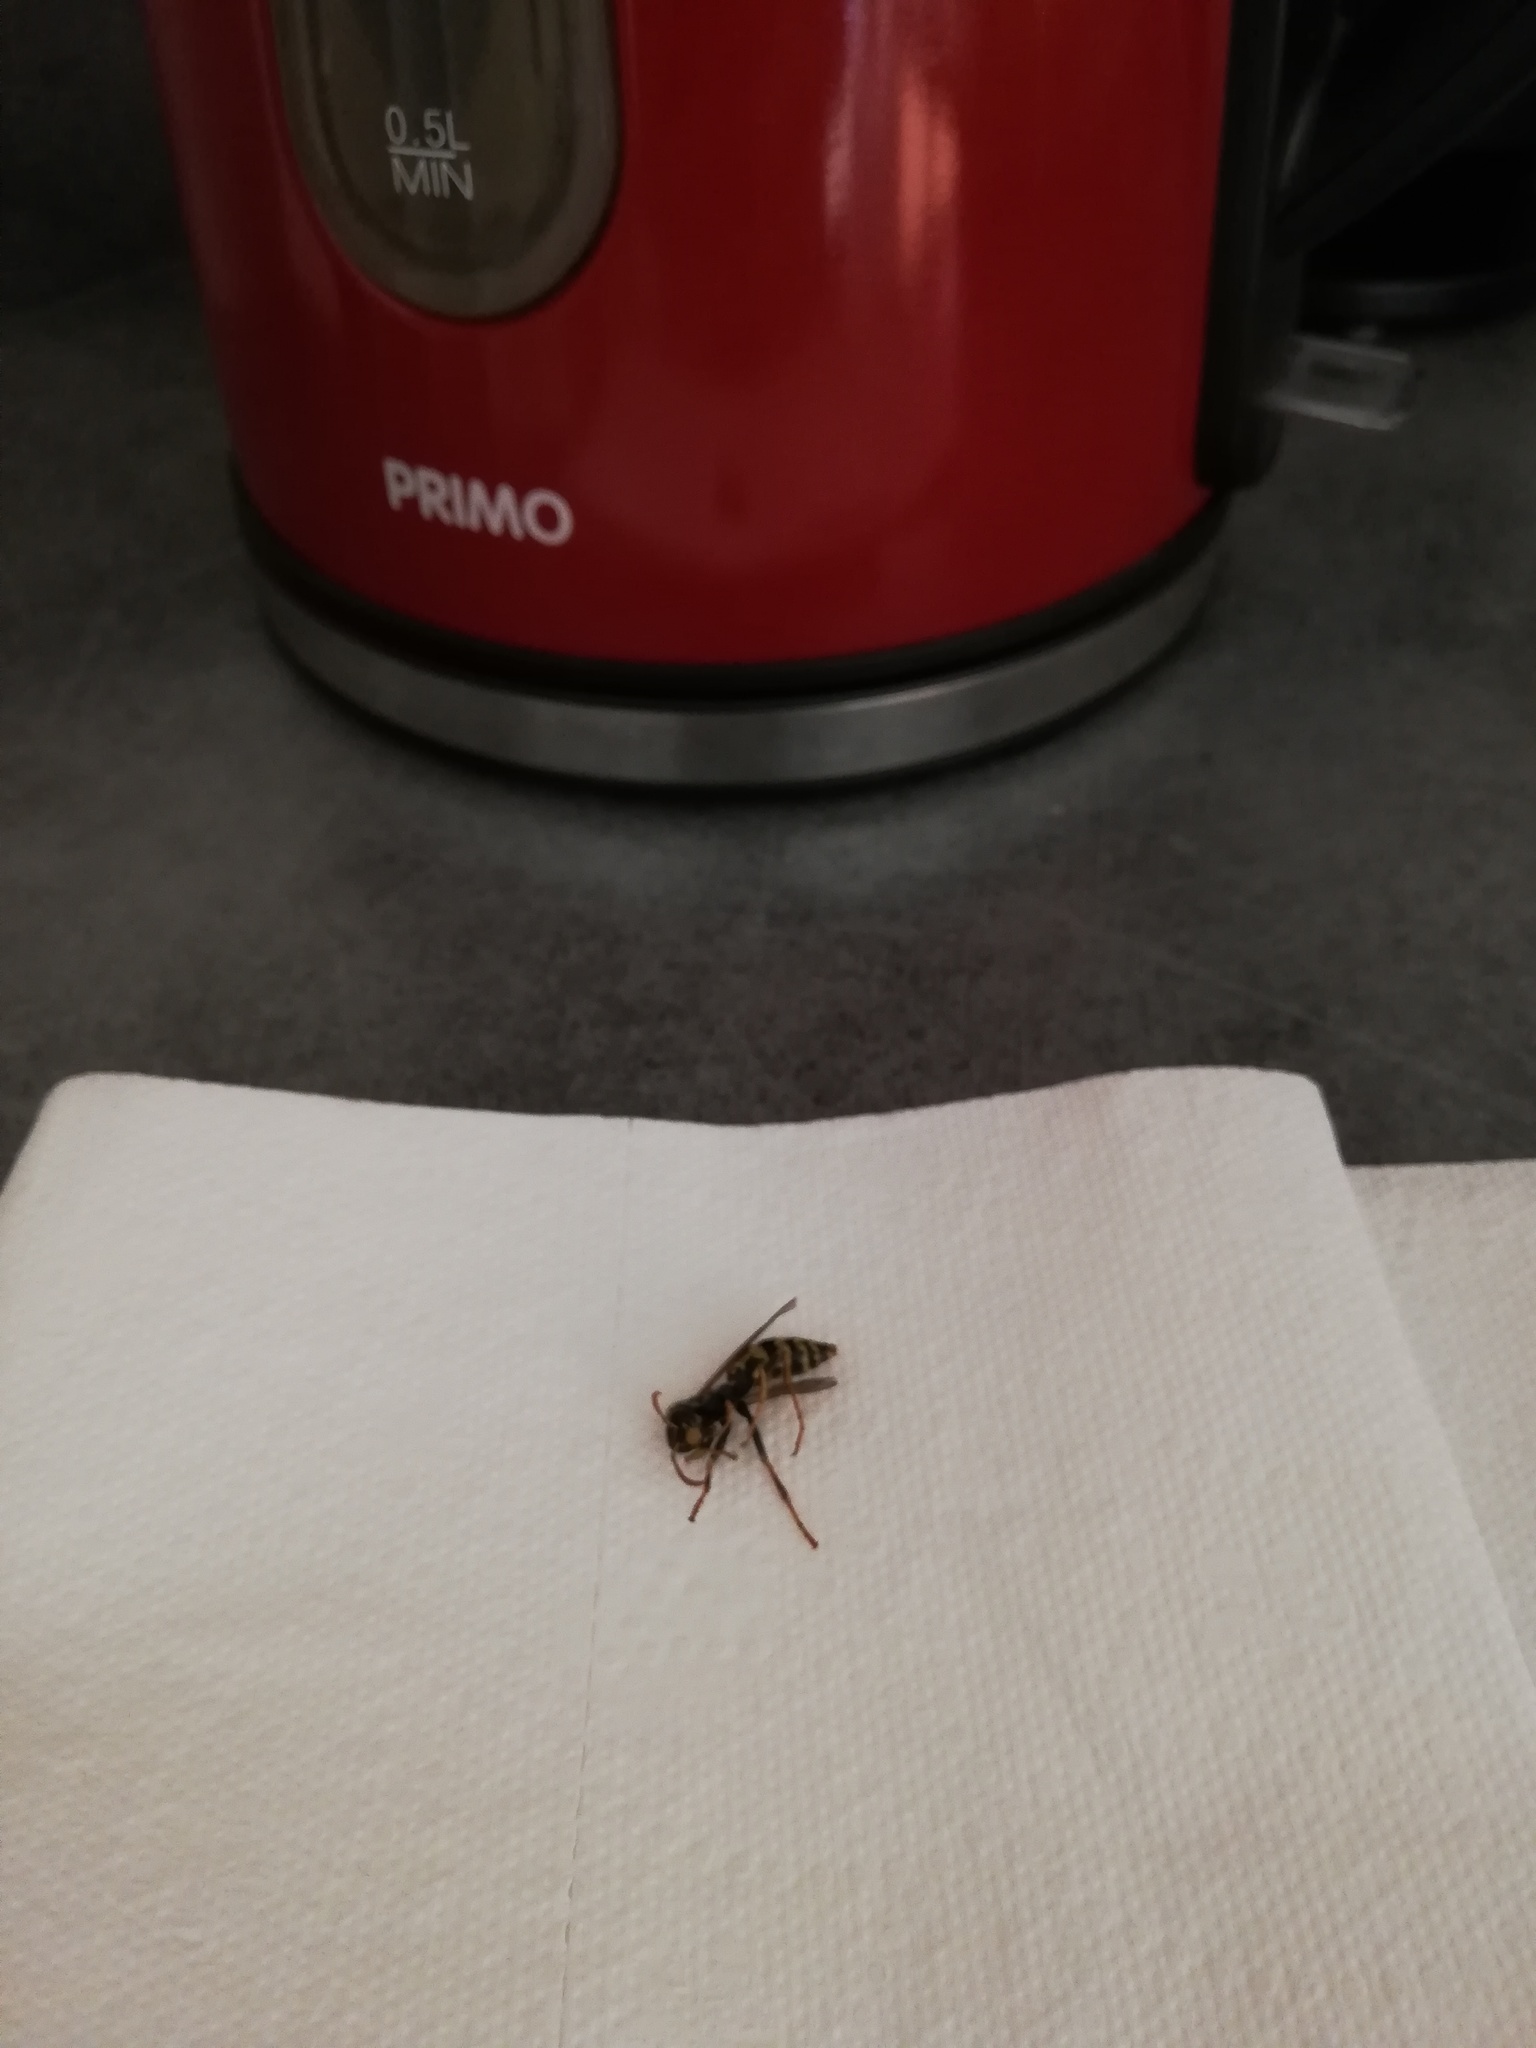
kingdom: Animalia
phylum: Arthropoda
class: Insecta
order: Hymenoptera
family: Eumenidae
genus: Polistes
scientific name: Polistes dominula
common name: Paper wasp
